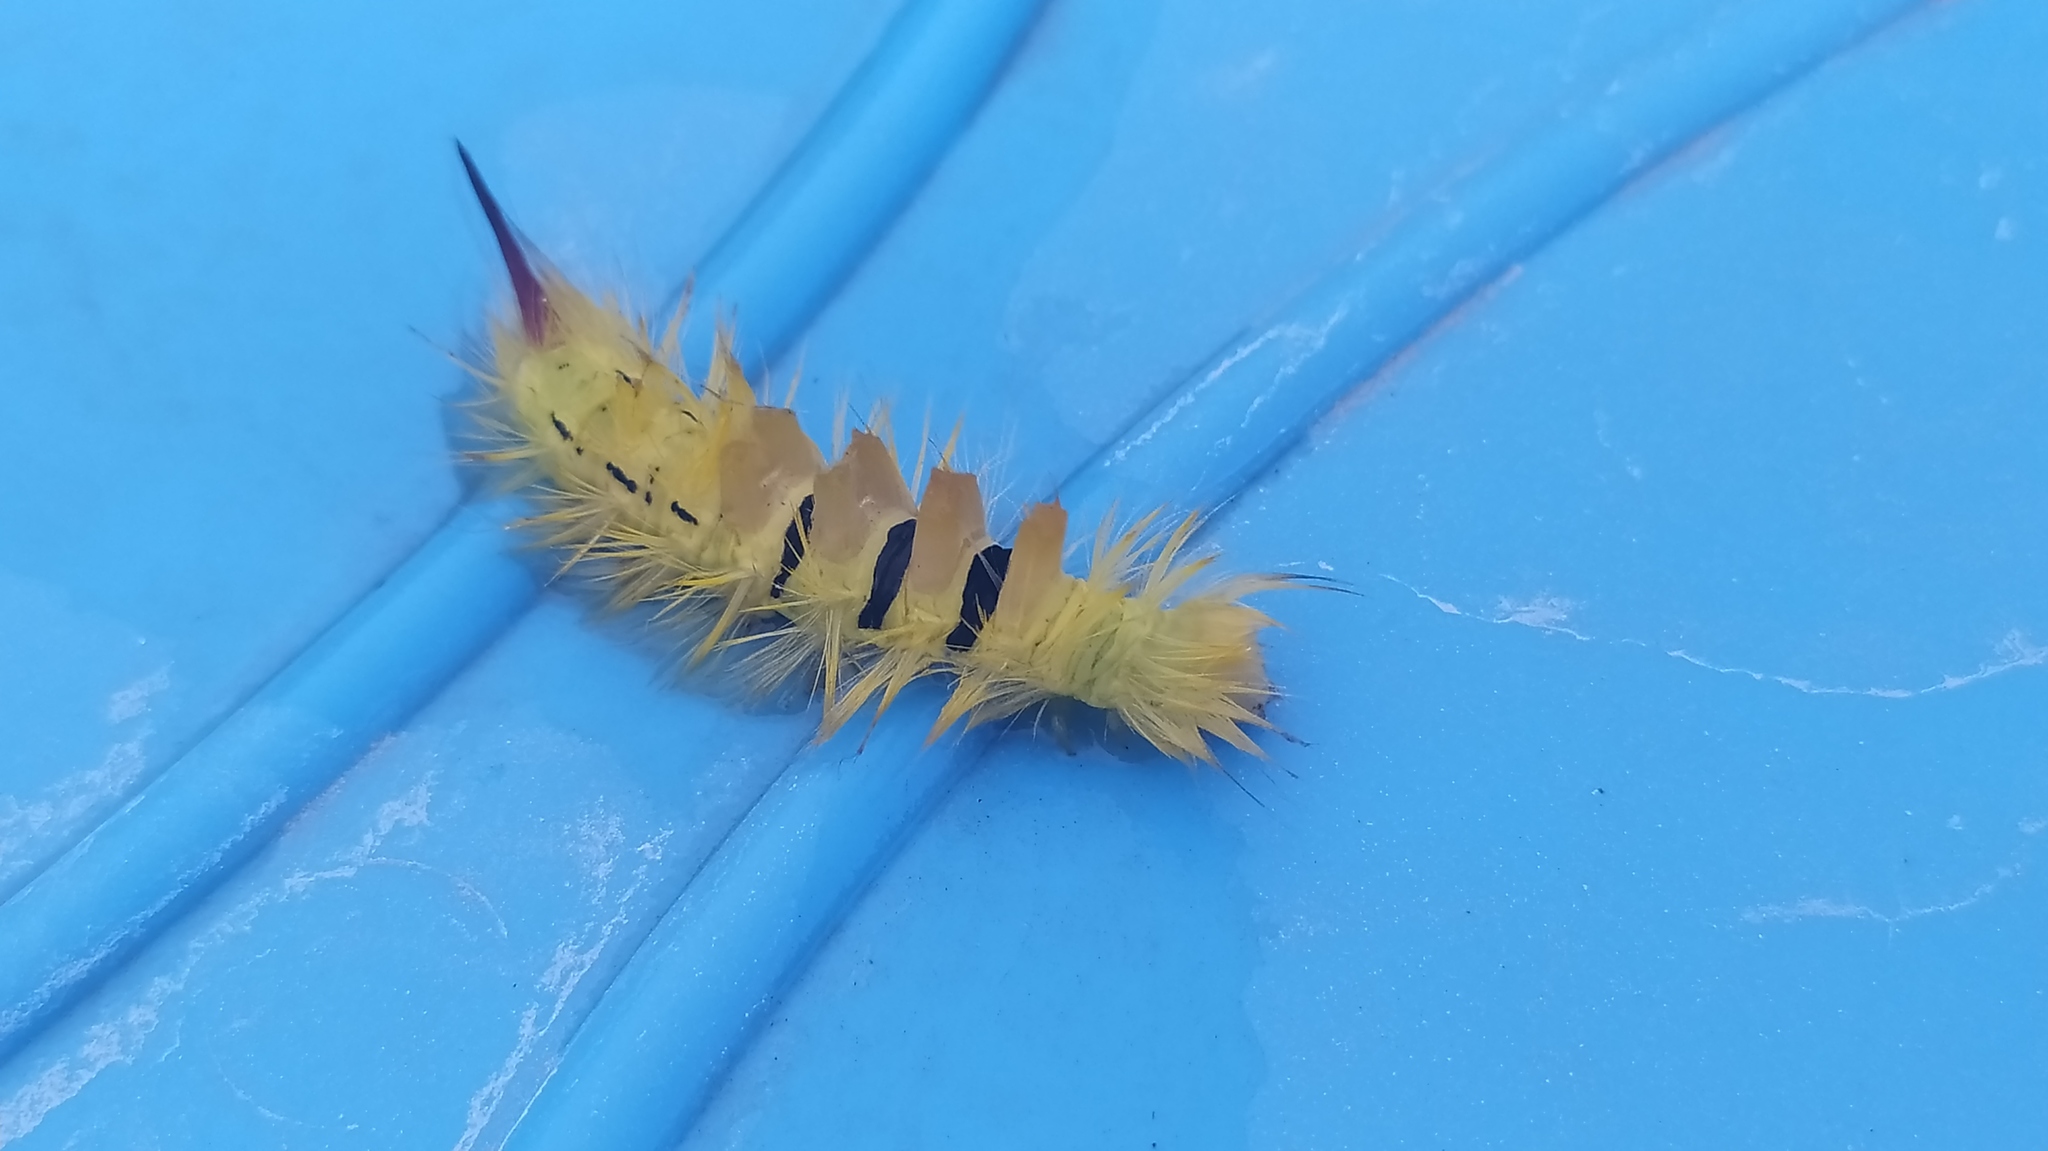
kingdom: Animalia
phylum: Arthropoda
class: Insecta
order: Lepidoptera
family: Erebidae
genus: Calliteara
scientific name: Calliteara pudibunda
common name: Pale tussock
